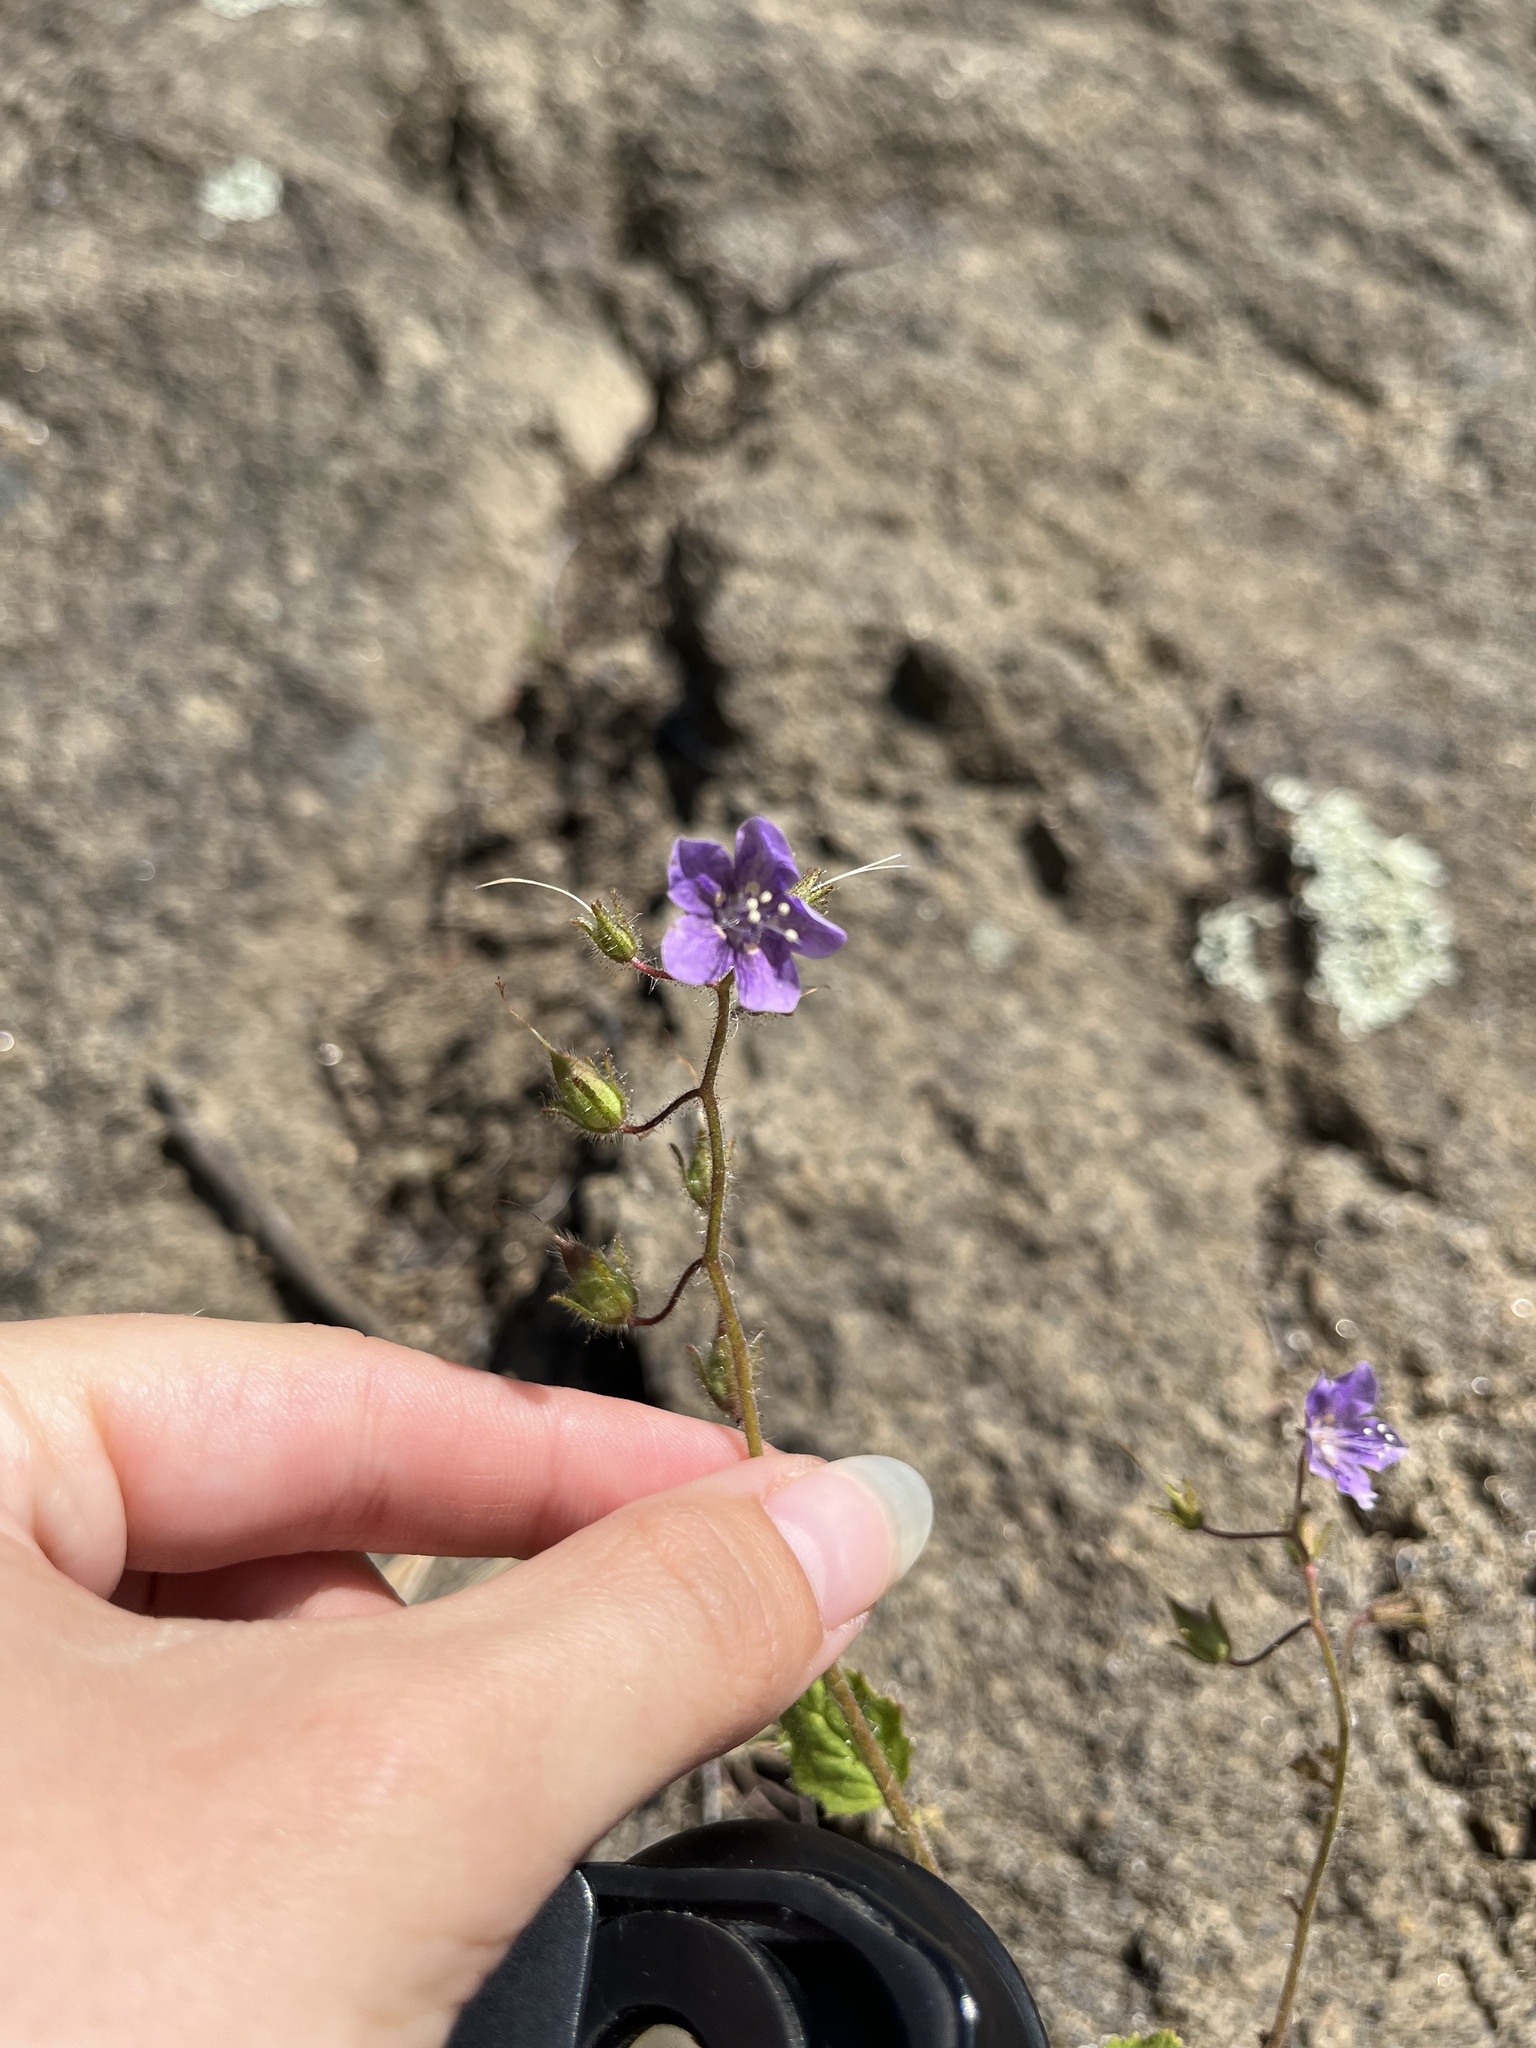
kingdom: Plantae
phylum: Tracheophyta
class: Magnoliopsida
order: Boraginales
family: Hydrophyllaceae
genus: Phacelia
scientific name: Phacelia parryi
